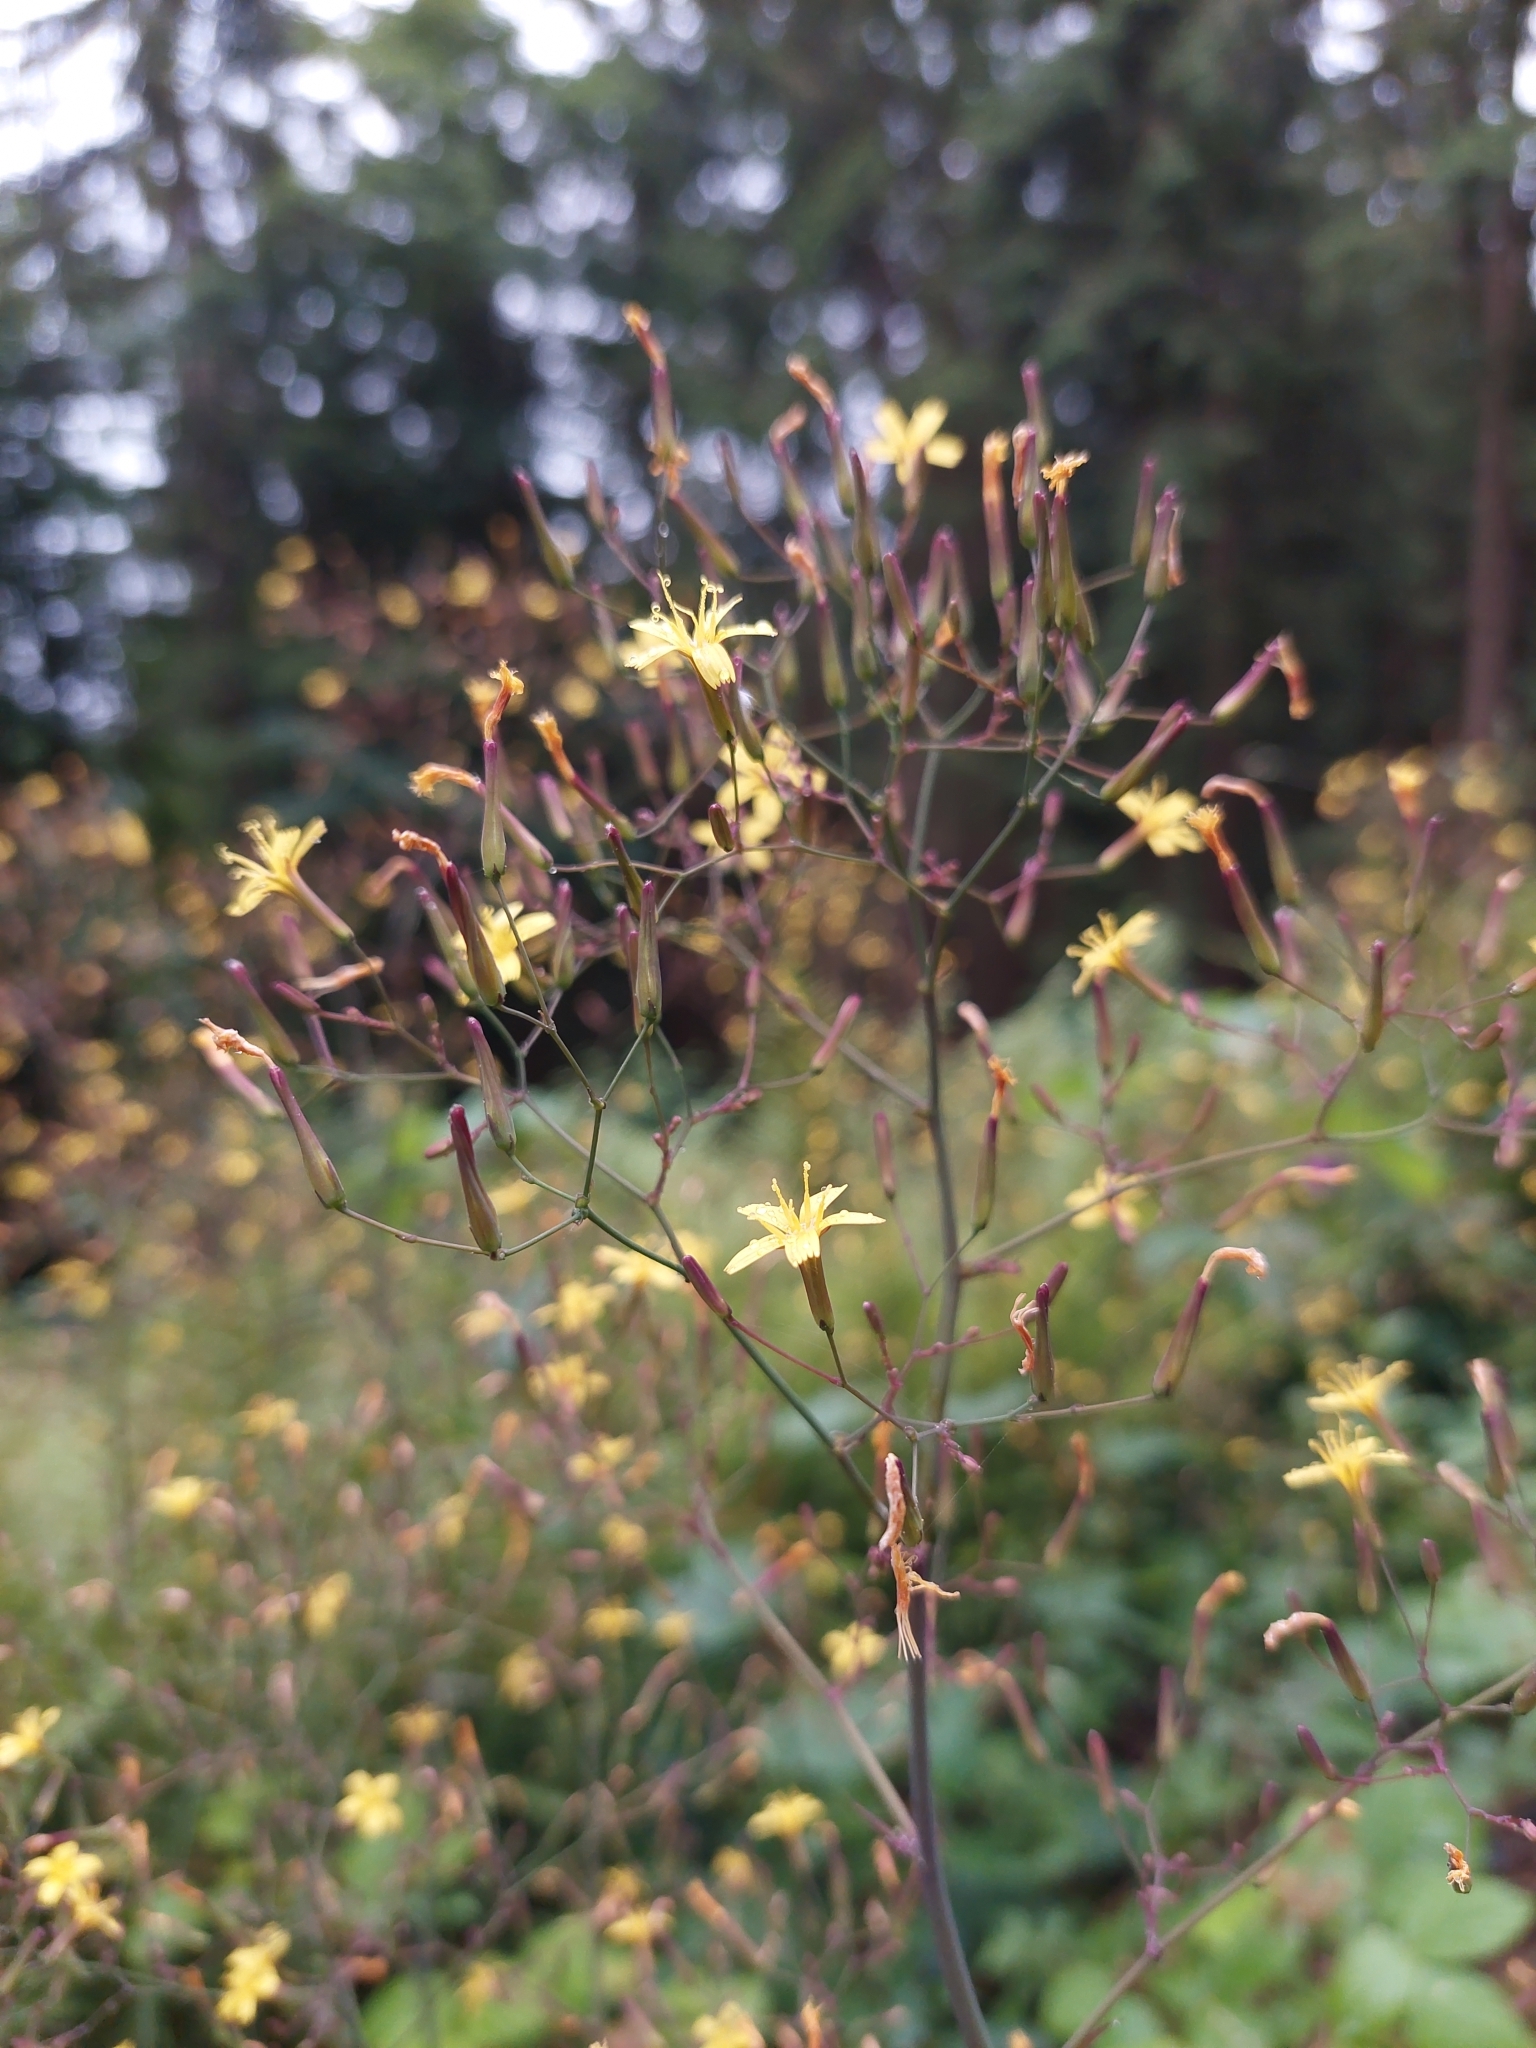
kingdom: Plantae
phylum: Tracheophyta
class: Magnoliopsida
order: Asterales
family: Asteraceae
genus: Mycelis
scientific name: Mycelis muralis
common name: Wall lettuce
